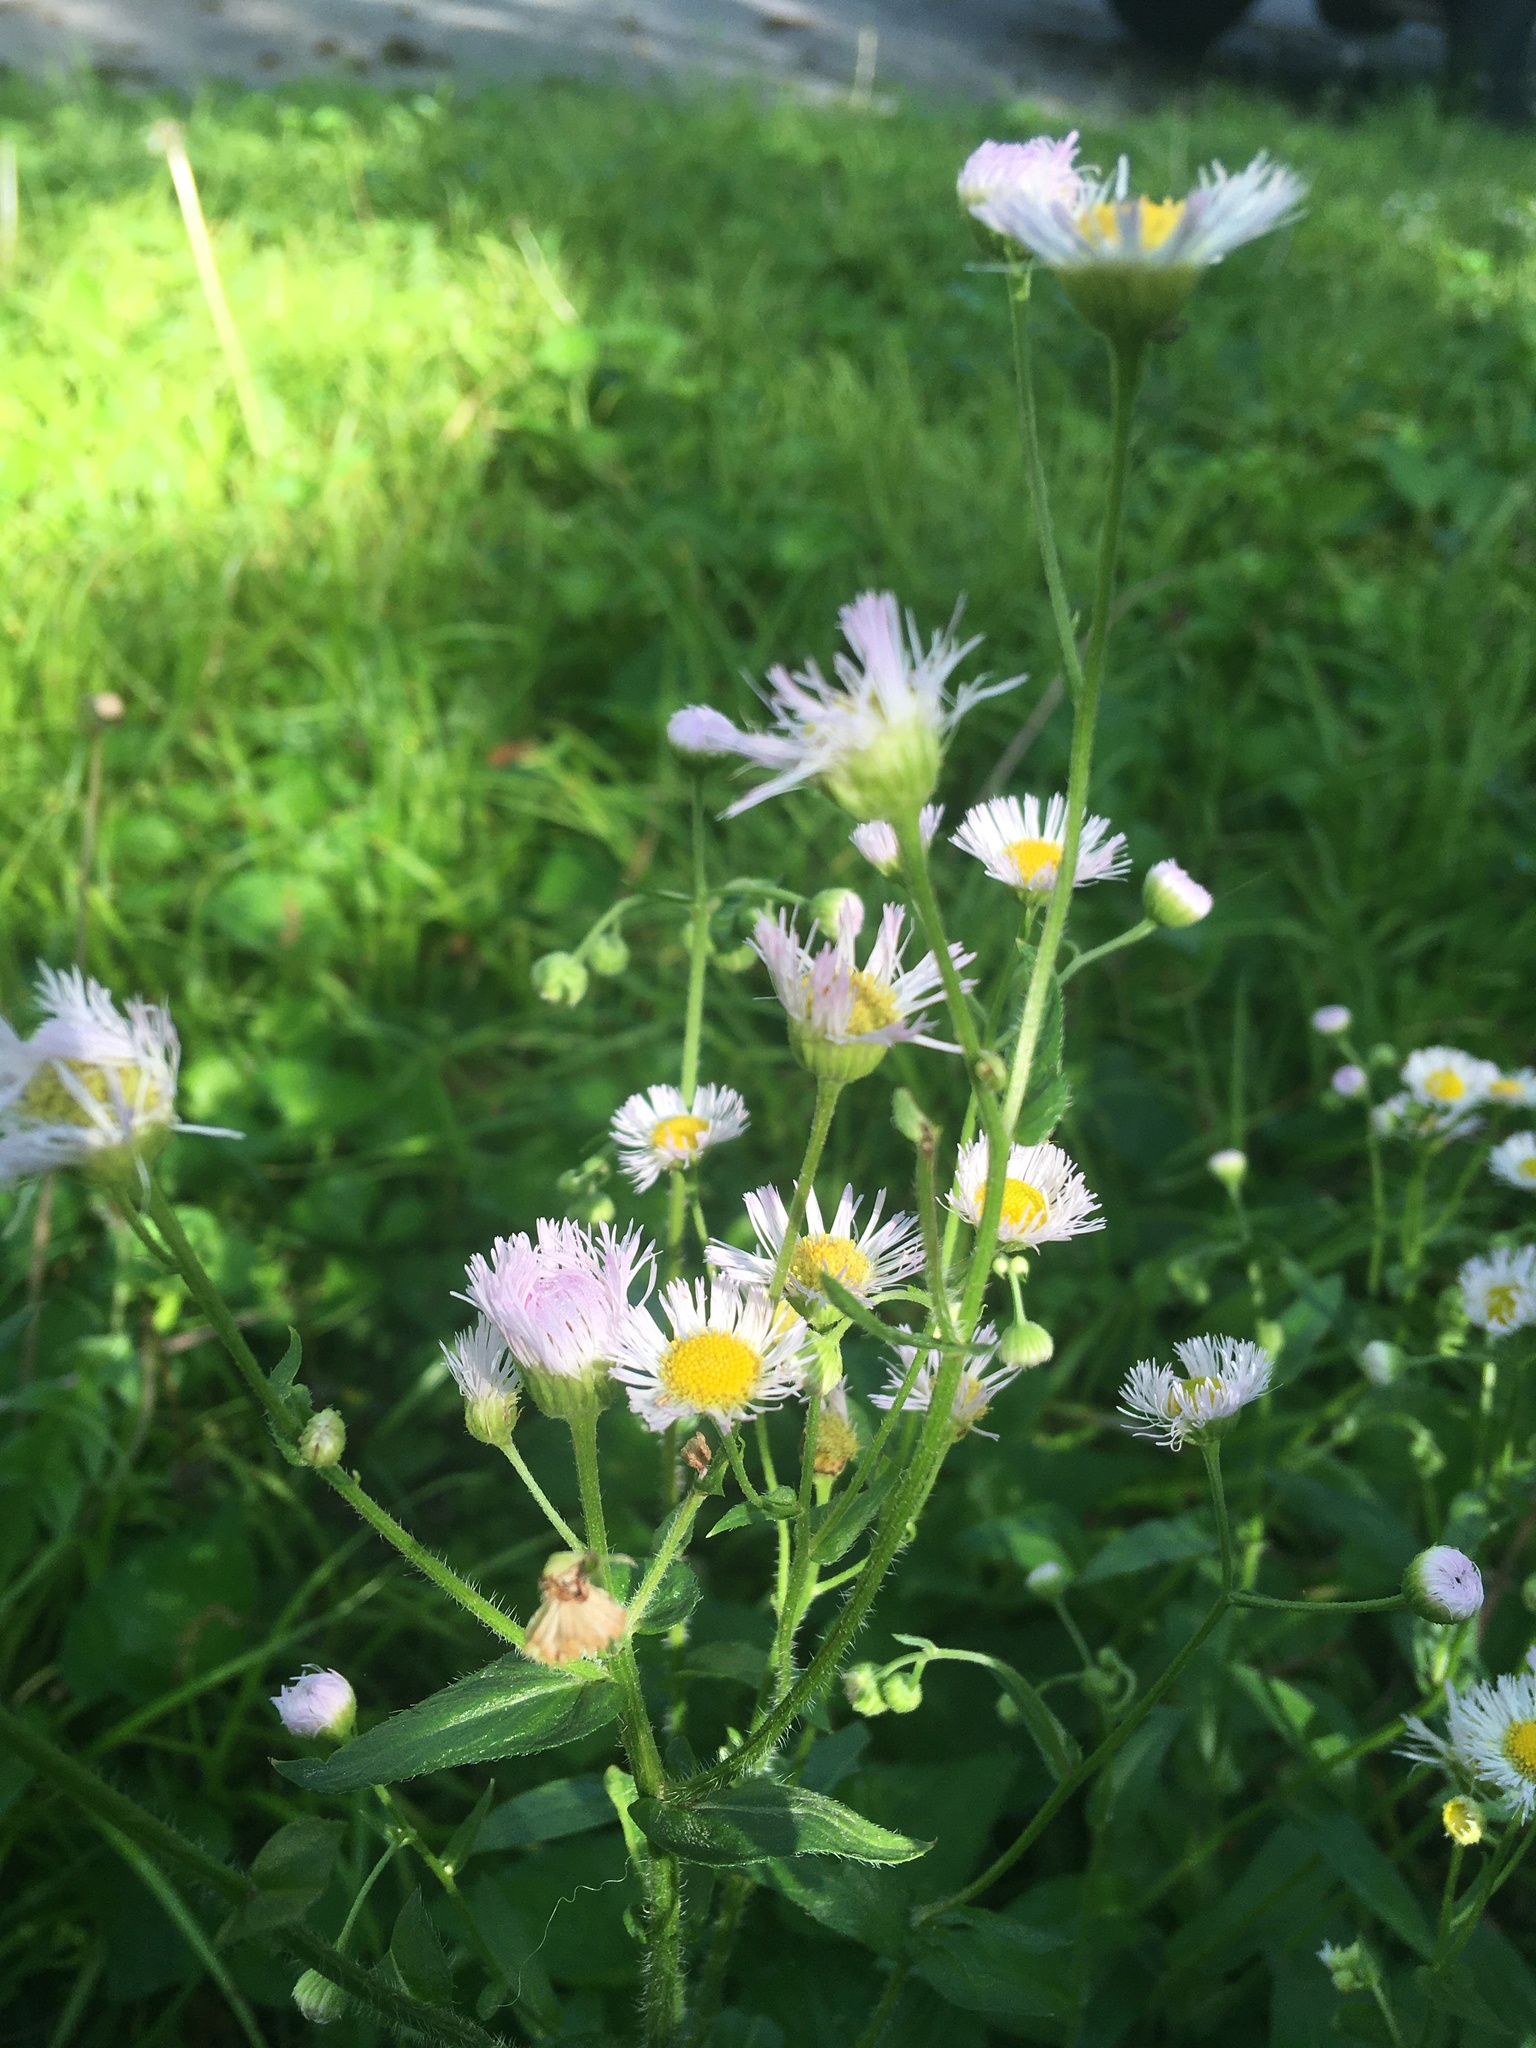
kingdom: Plantae
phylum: Tracheophyta
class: Magnoliopsida
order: Asterales
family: Asteraceae
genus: Erigeron
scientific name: Erigeron philadelphicus
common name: Robin's-plantain
